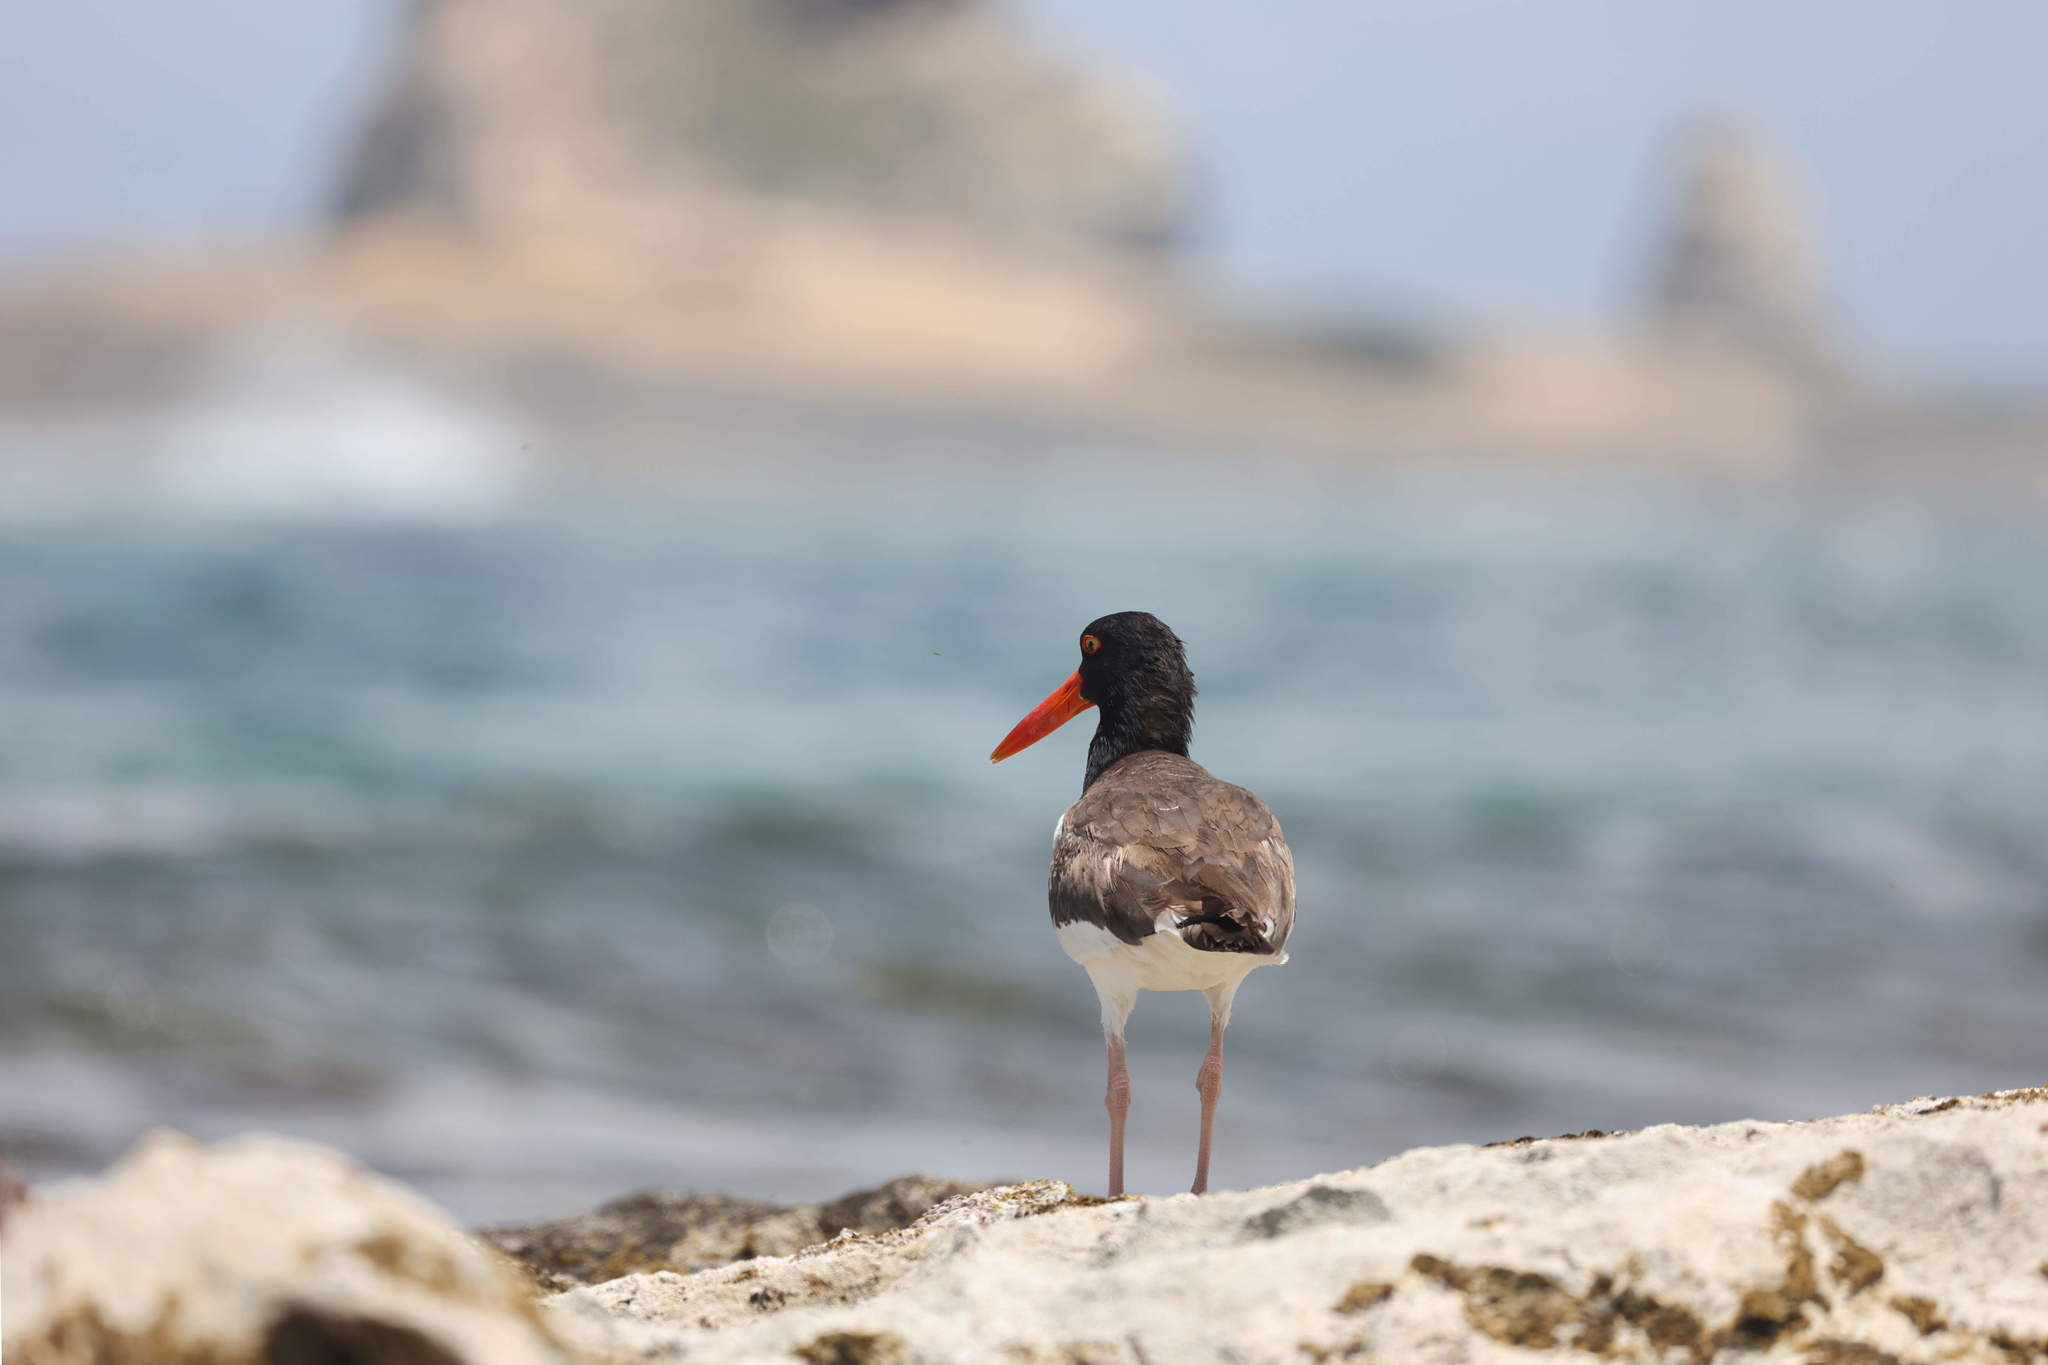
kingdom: Animalia
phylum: Chordata
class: Aves
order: Charadriiformes
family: Haematopodidae
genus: Haematopus
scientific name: Haematopus palliatus
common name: American oystercatcher
